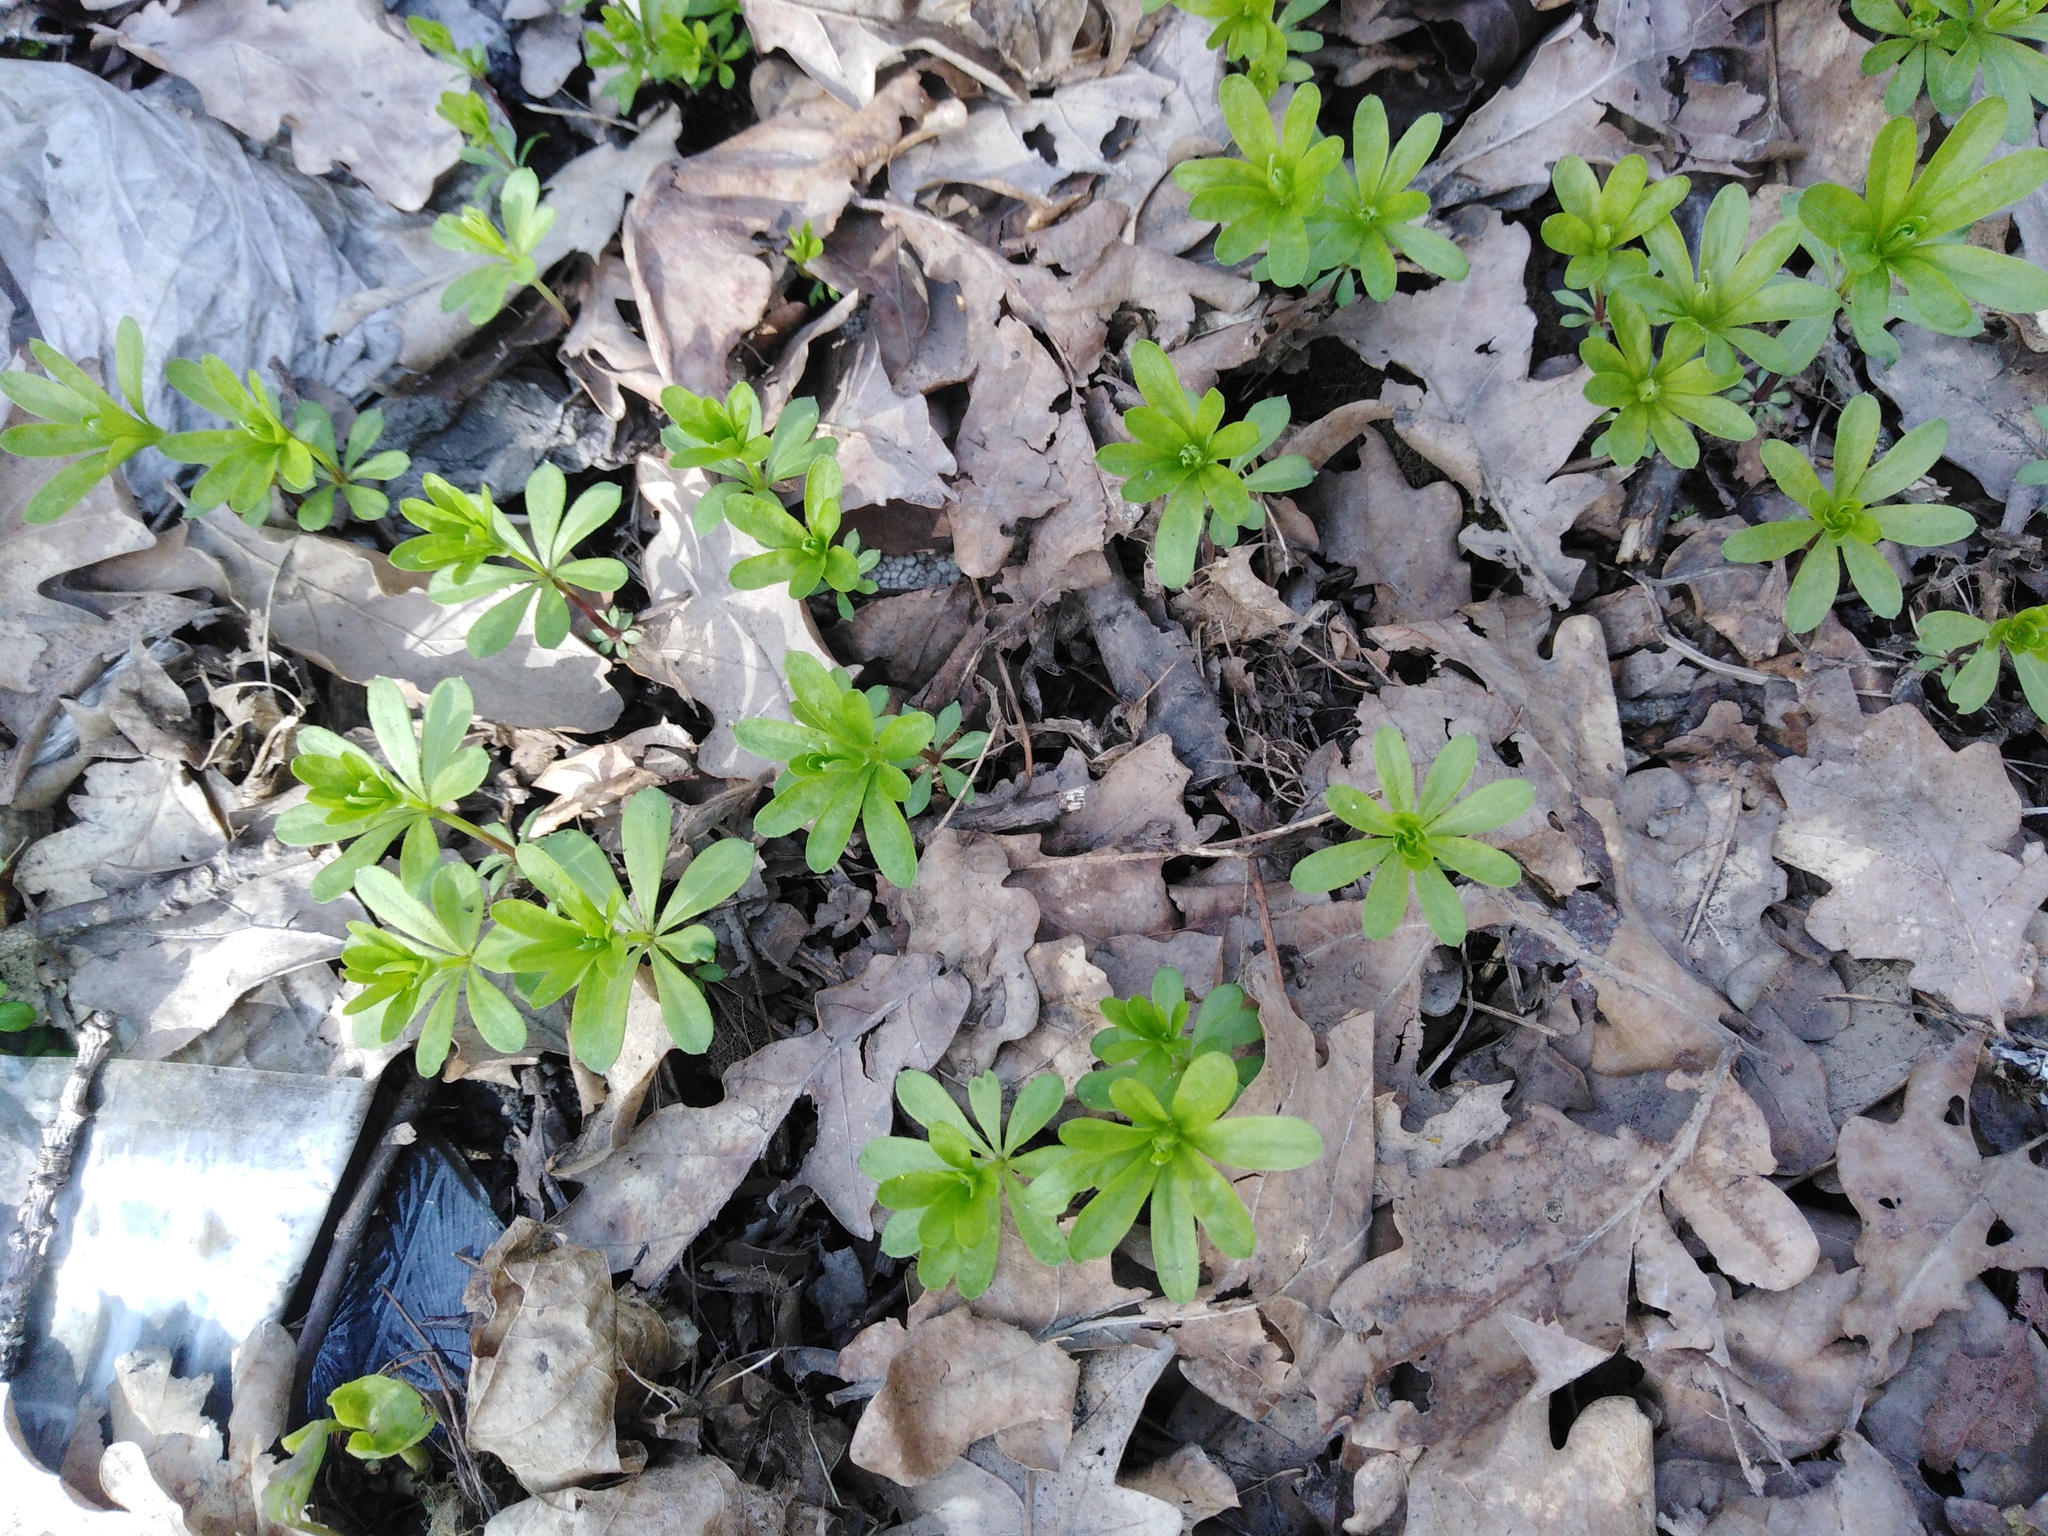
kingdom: Plantae
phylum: Tracheophyta
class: Magnoliopsida
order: Gentianales
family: Rubiaceae
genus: Galium
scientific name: Galium odoratum
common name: Sweet woodruff
